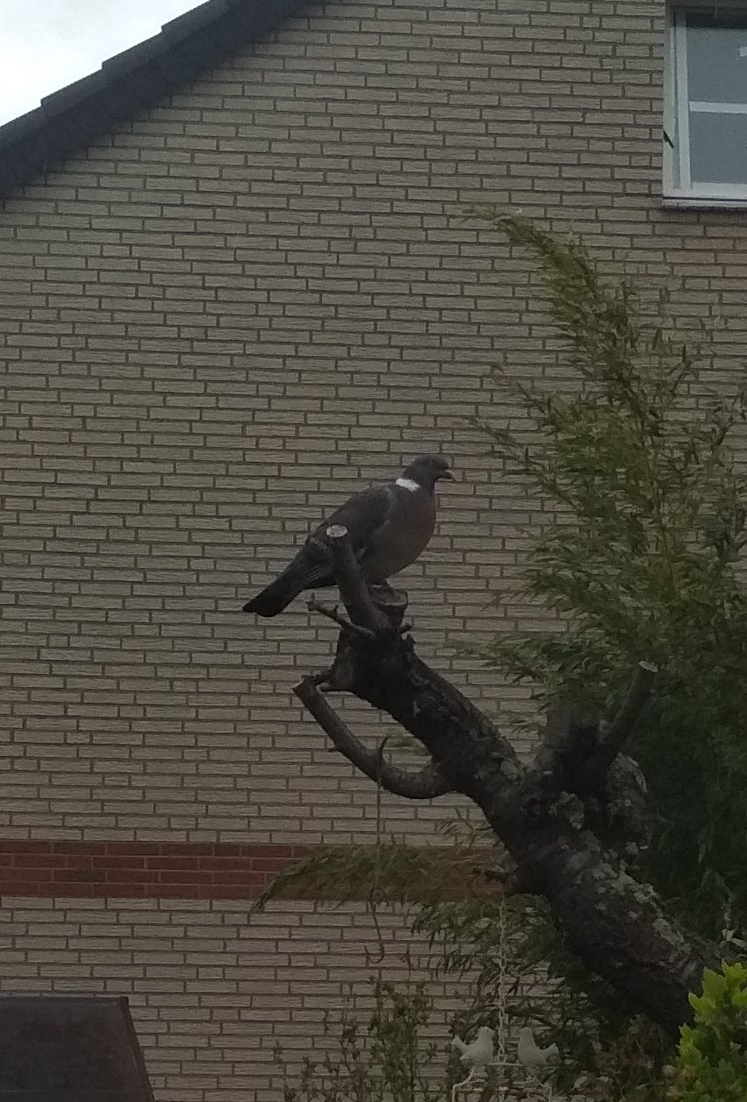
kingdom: Animalia
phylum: Chordata
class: Aves
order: Columbiformes
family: Columbidae
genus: Columba
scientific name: Columba palumbus
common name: Common wood pigeon
